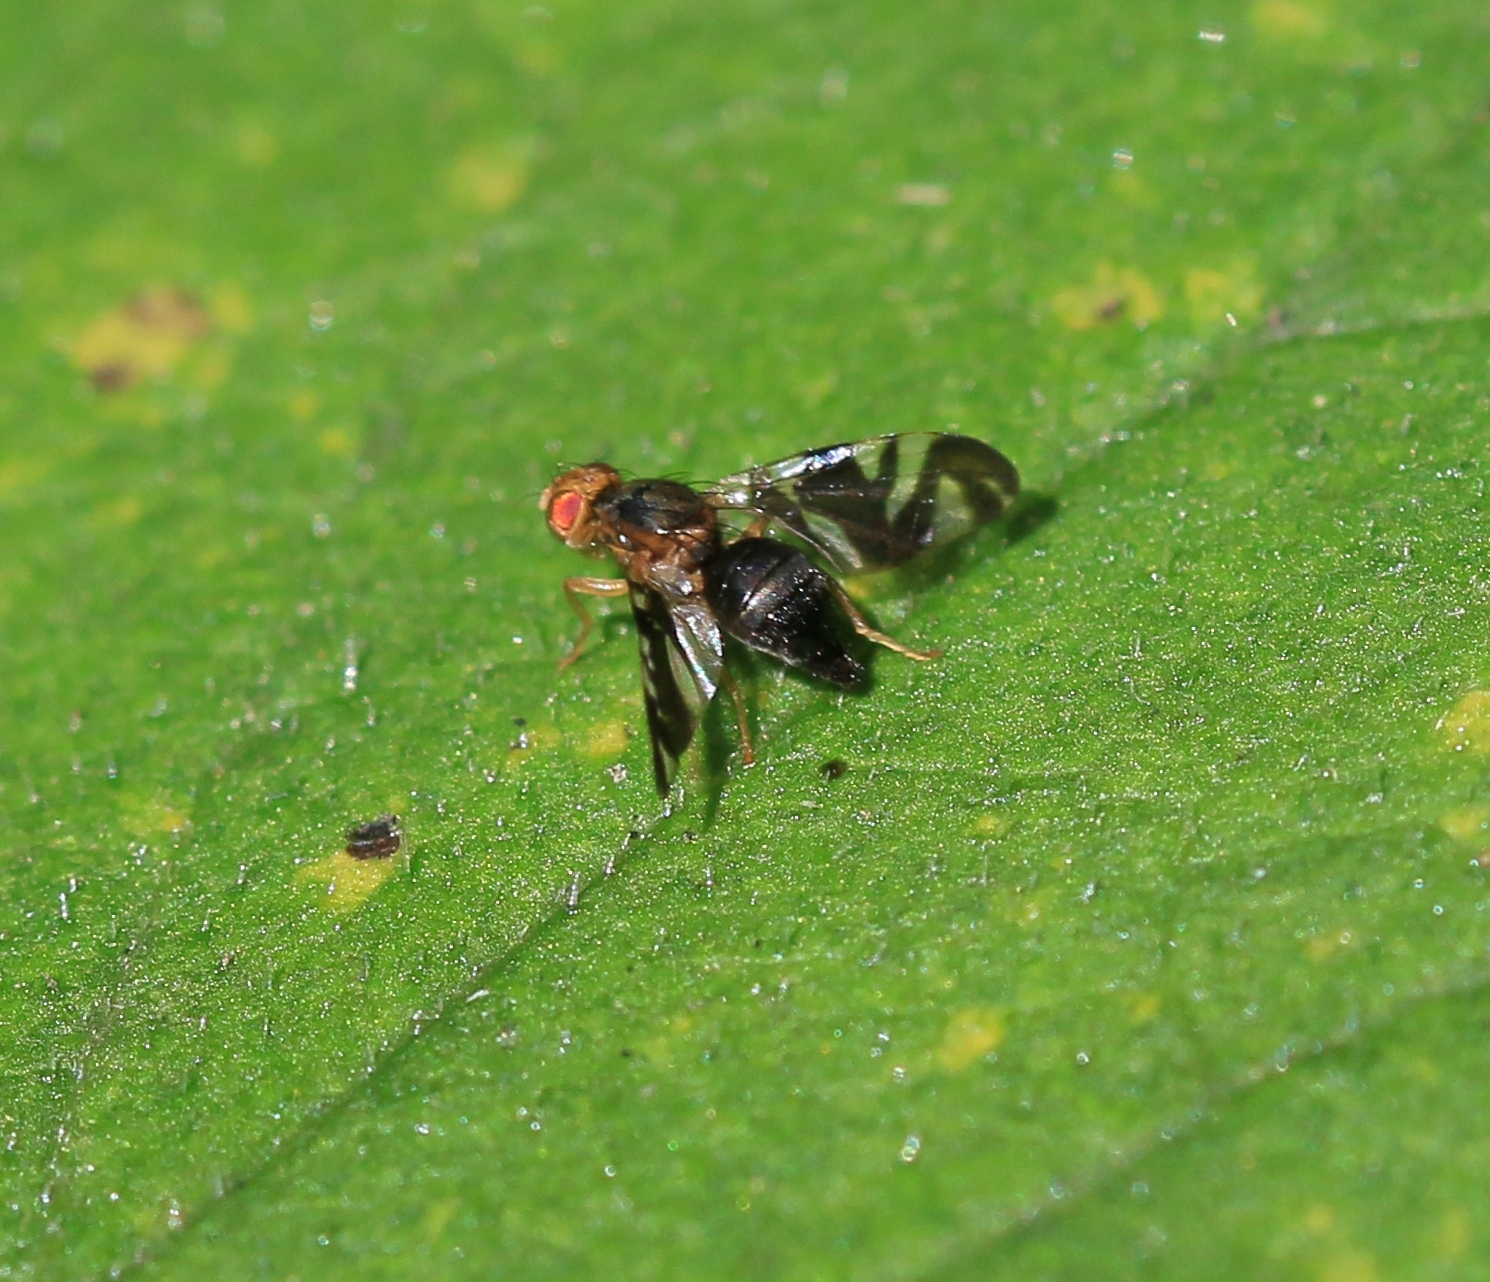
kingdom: Animalia
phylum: Arthropoda
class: Insecta
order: Diptera
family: Tephritidae
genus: Philophylla
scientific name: Philophylla caesio
